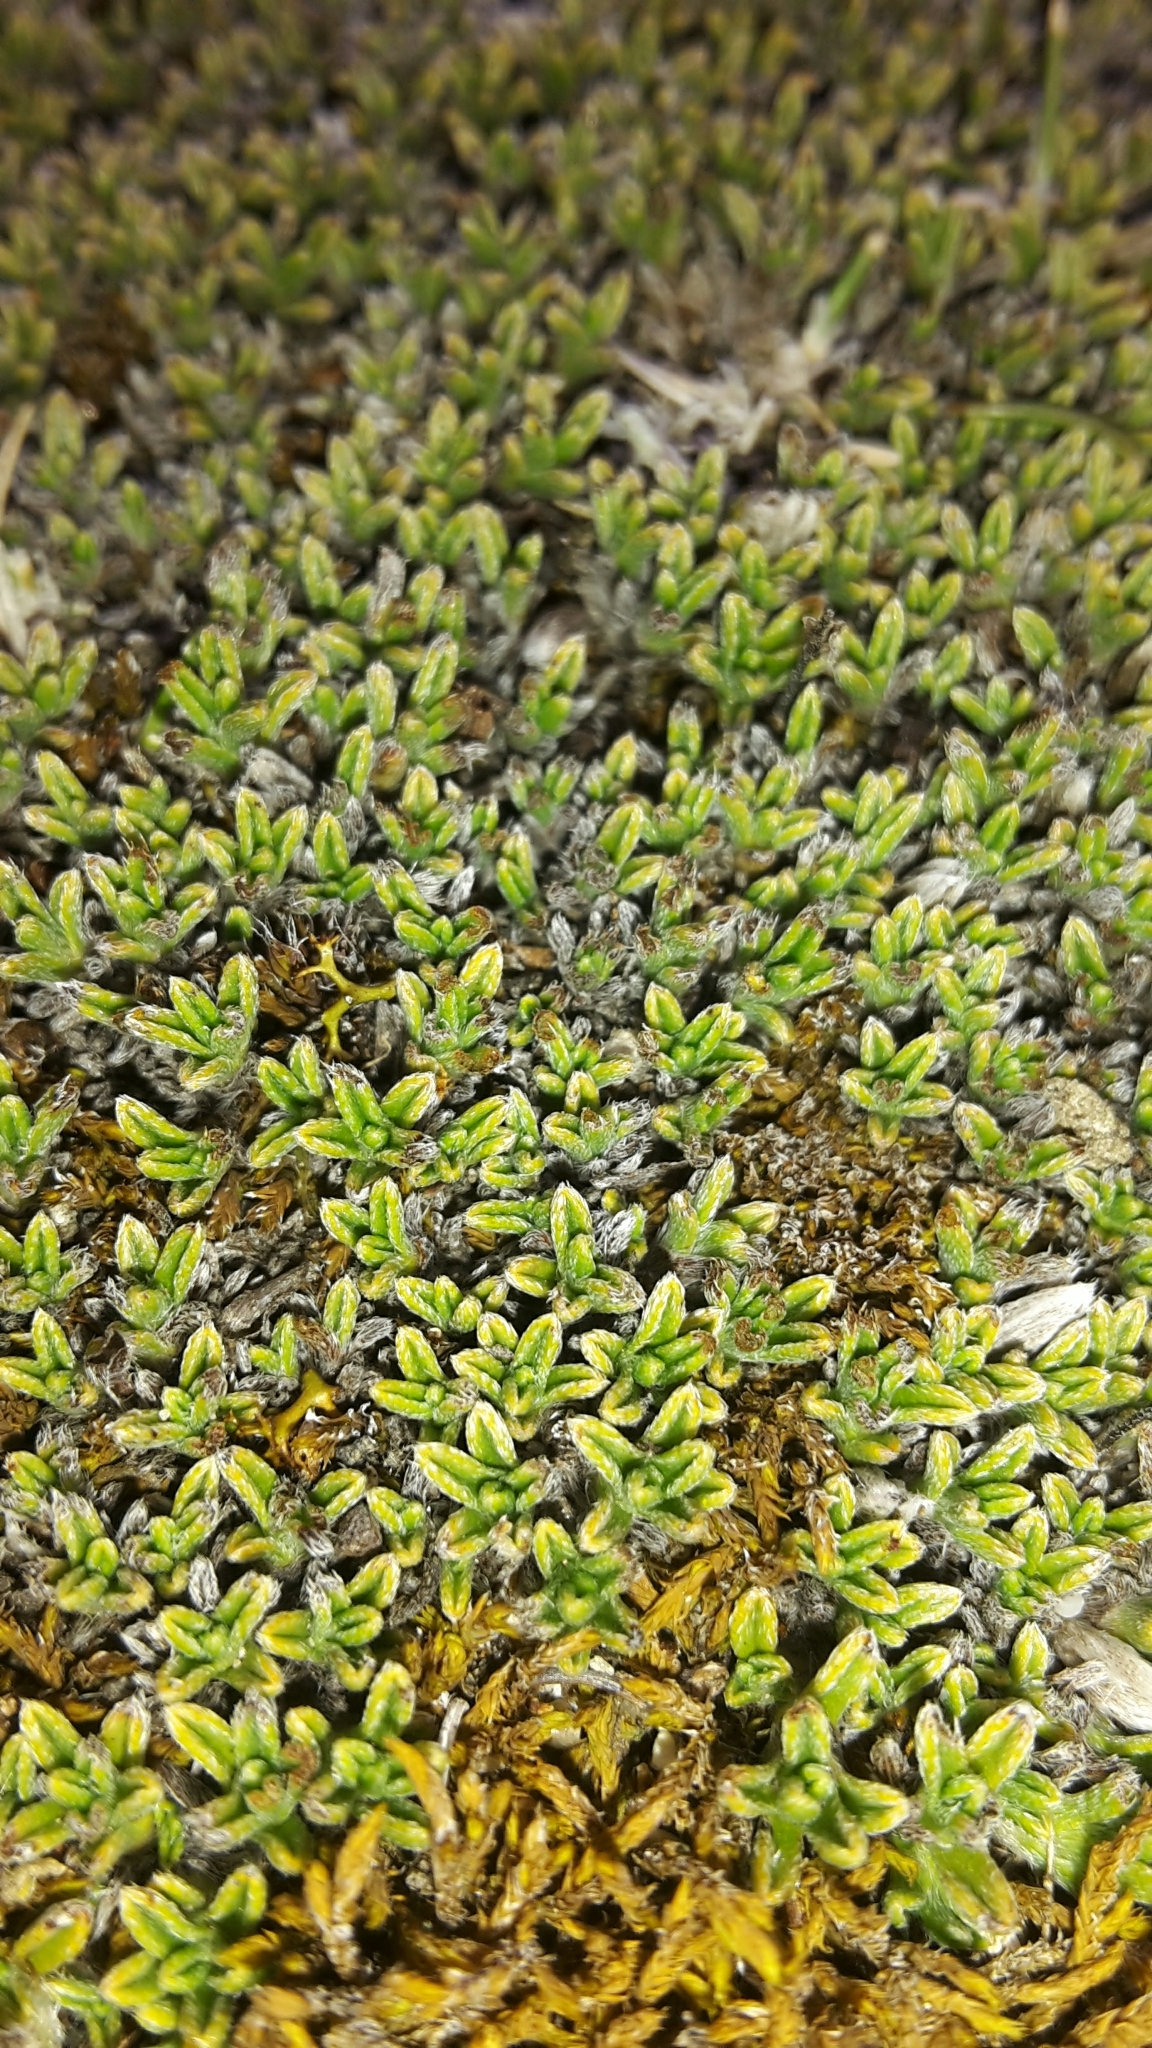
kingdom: Plantae
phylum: Tracheophyta
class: Magnoliopsida
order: Boraginales
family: Boraginaceae
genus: Myosotis
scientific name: Myosotis uniflora
